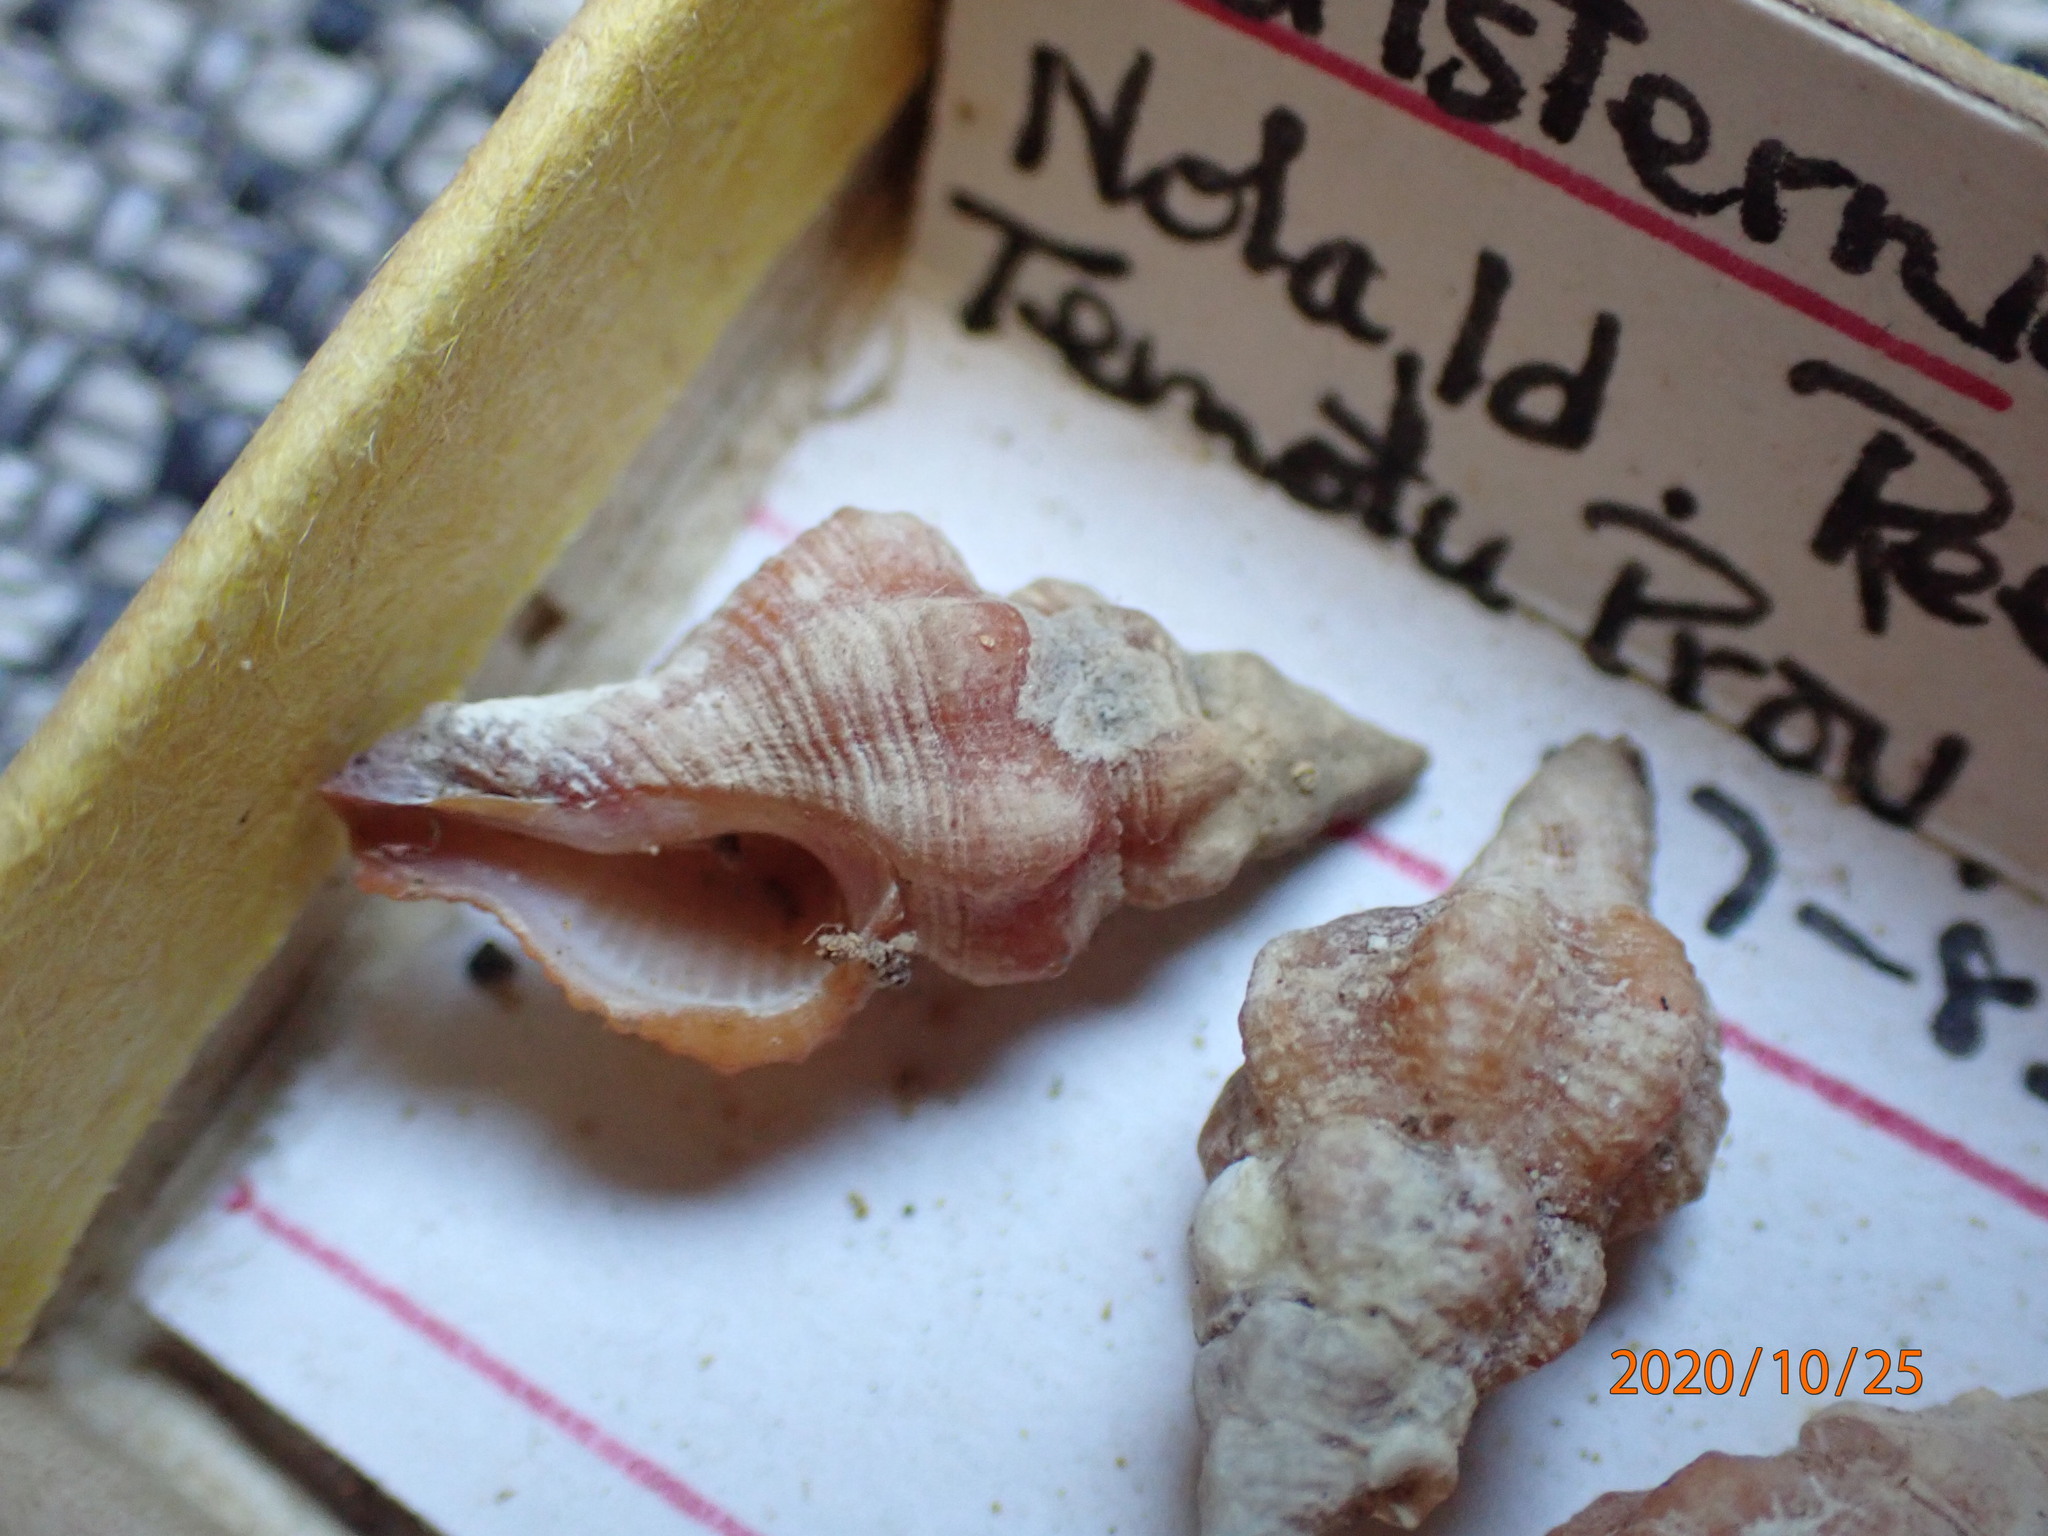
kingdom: Animalia
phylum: Mollusca
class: Gastropoda
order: Neogastropoda
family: Fasciolariidae
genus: Peristernia
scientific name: Peristernia ustulata
